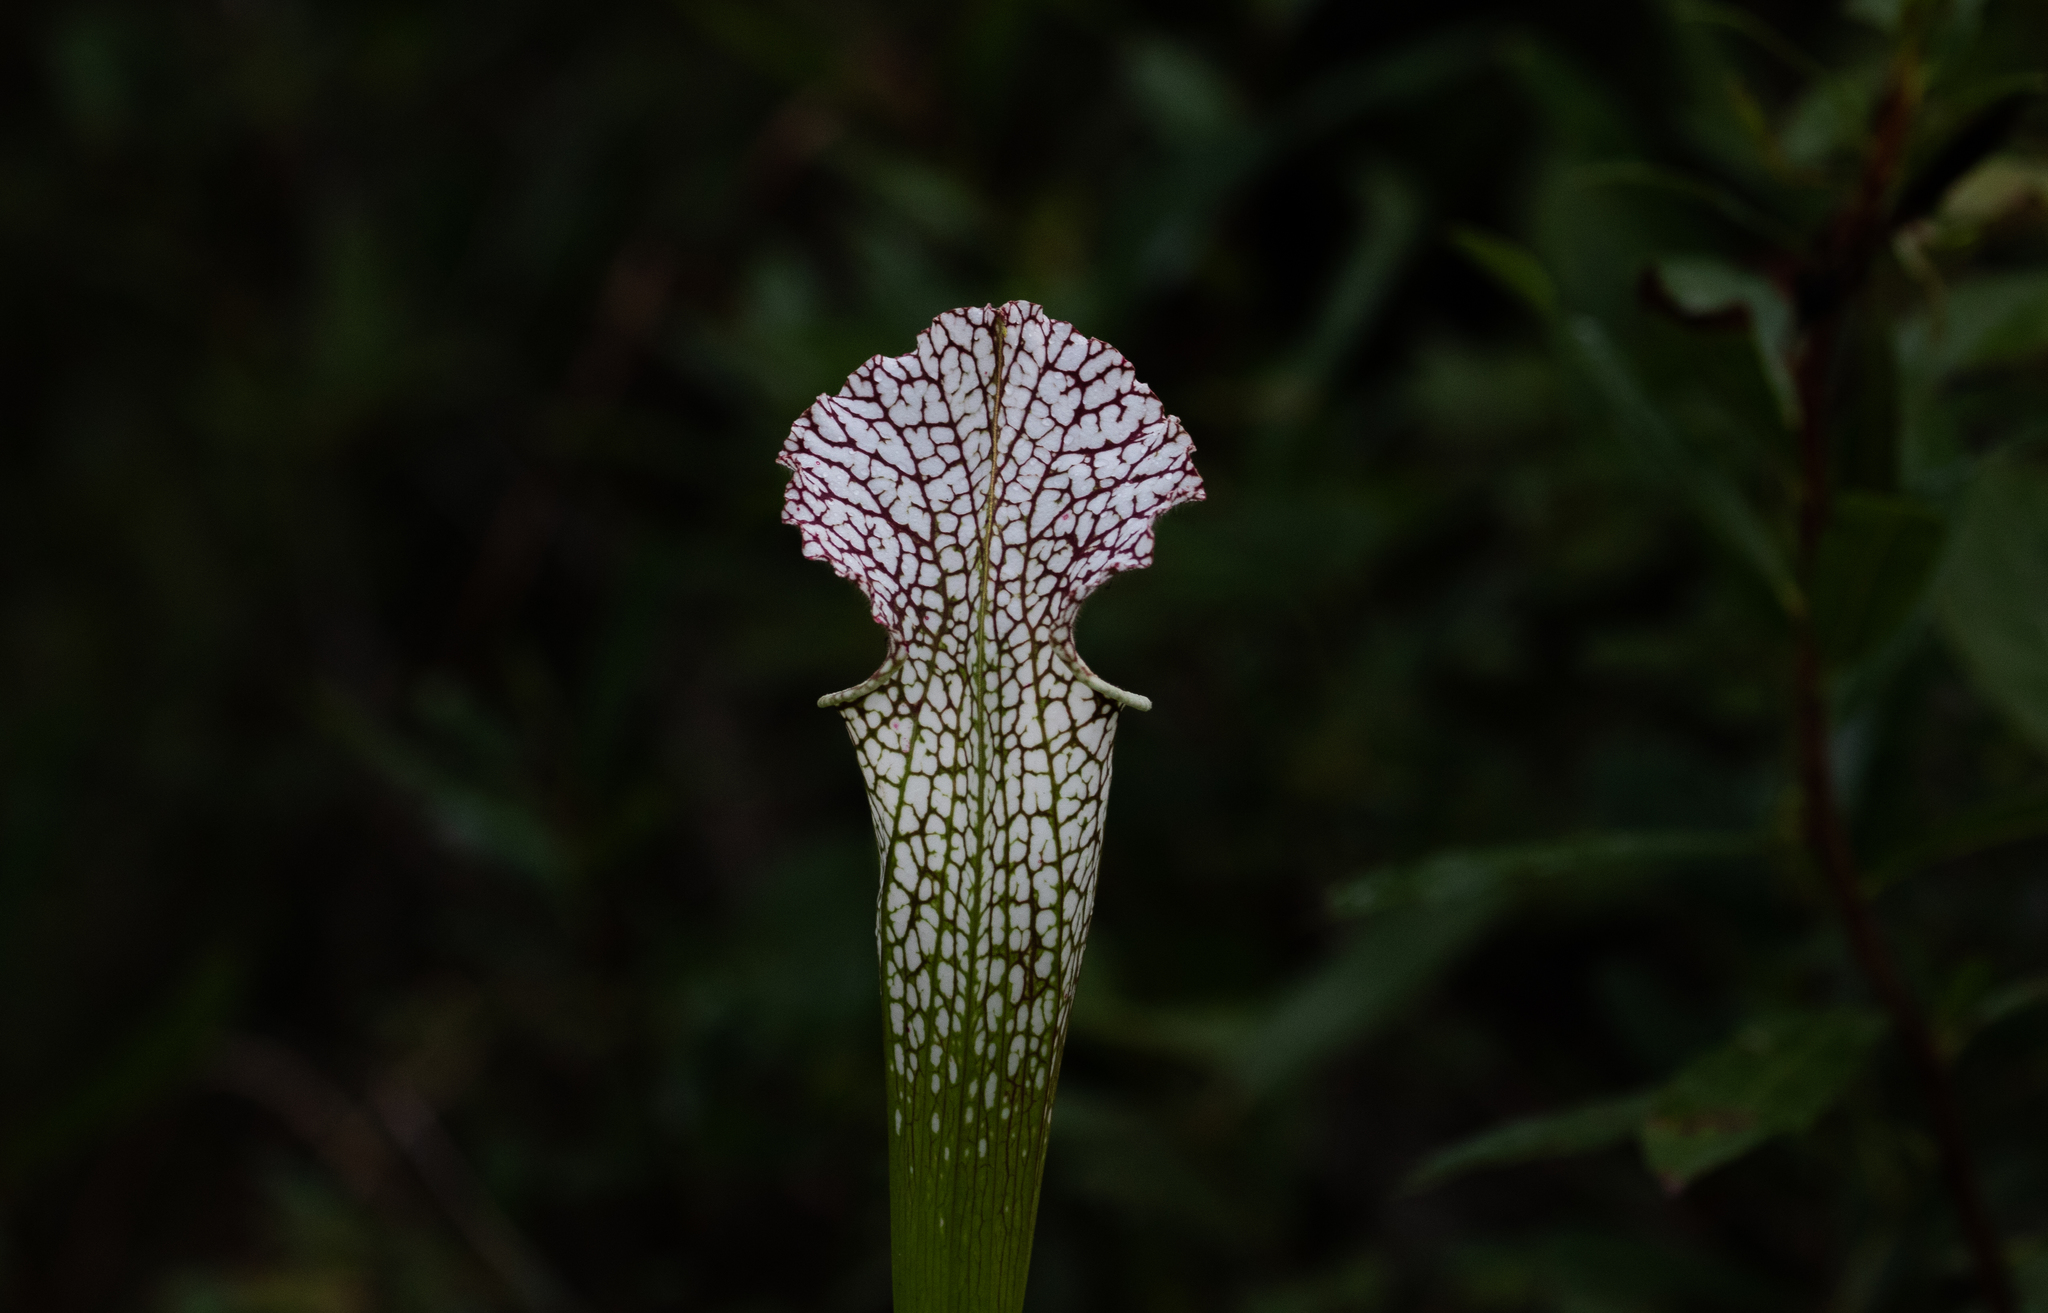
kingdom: Plantae
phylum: Tracheophyta
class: Magnoliopsida
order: Ericales
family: Sarraceniaceae
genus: Sarracenia
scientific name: Sarracenia leucophylla
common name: Purple trumpetleaf
